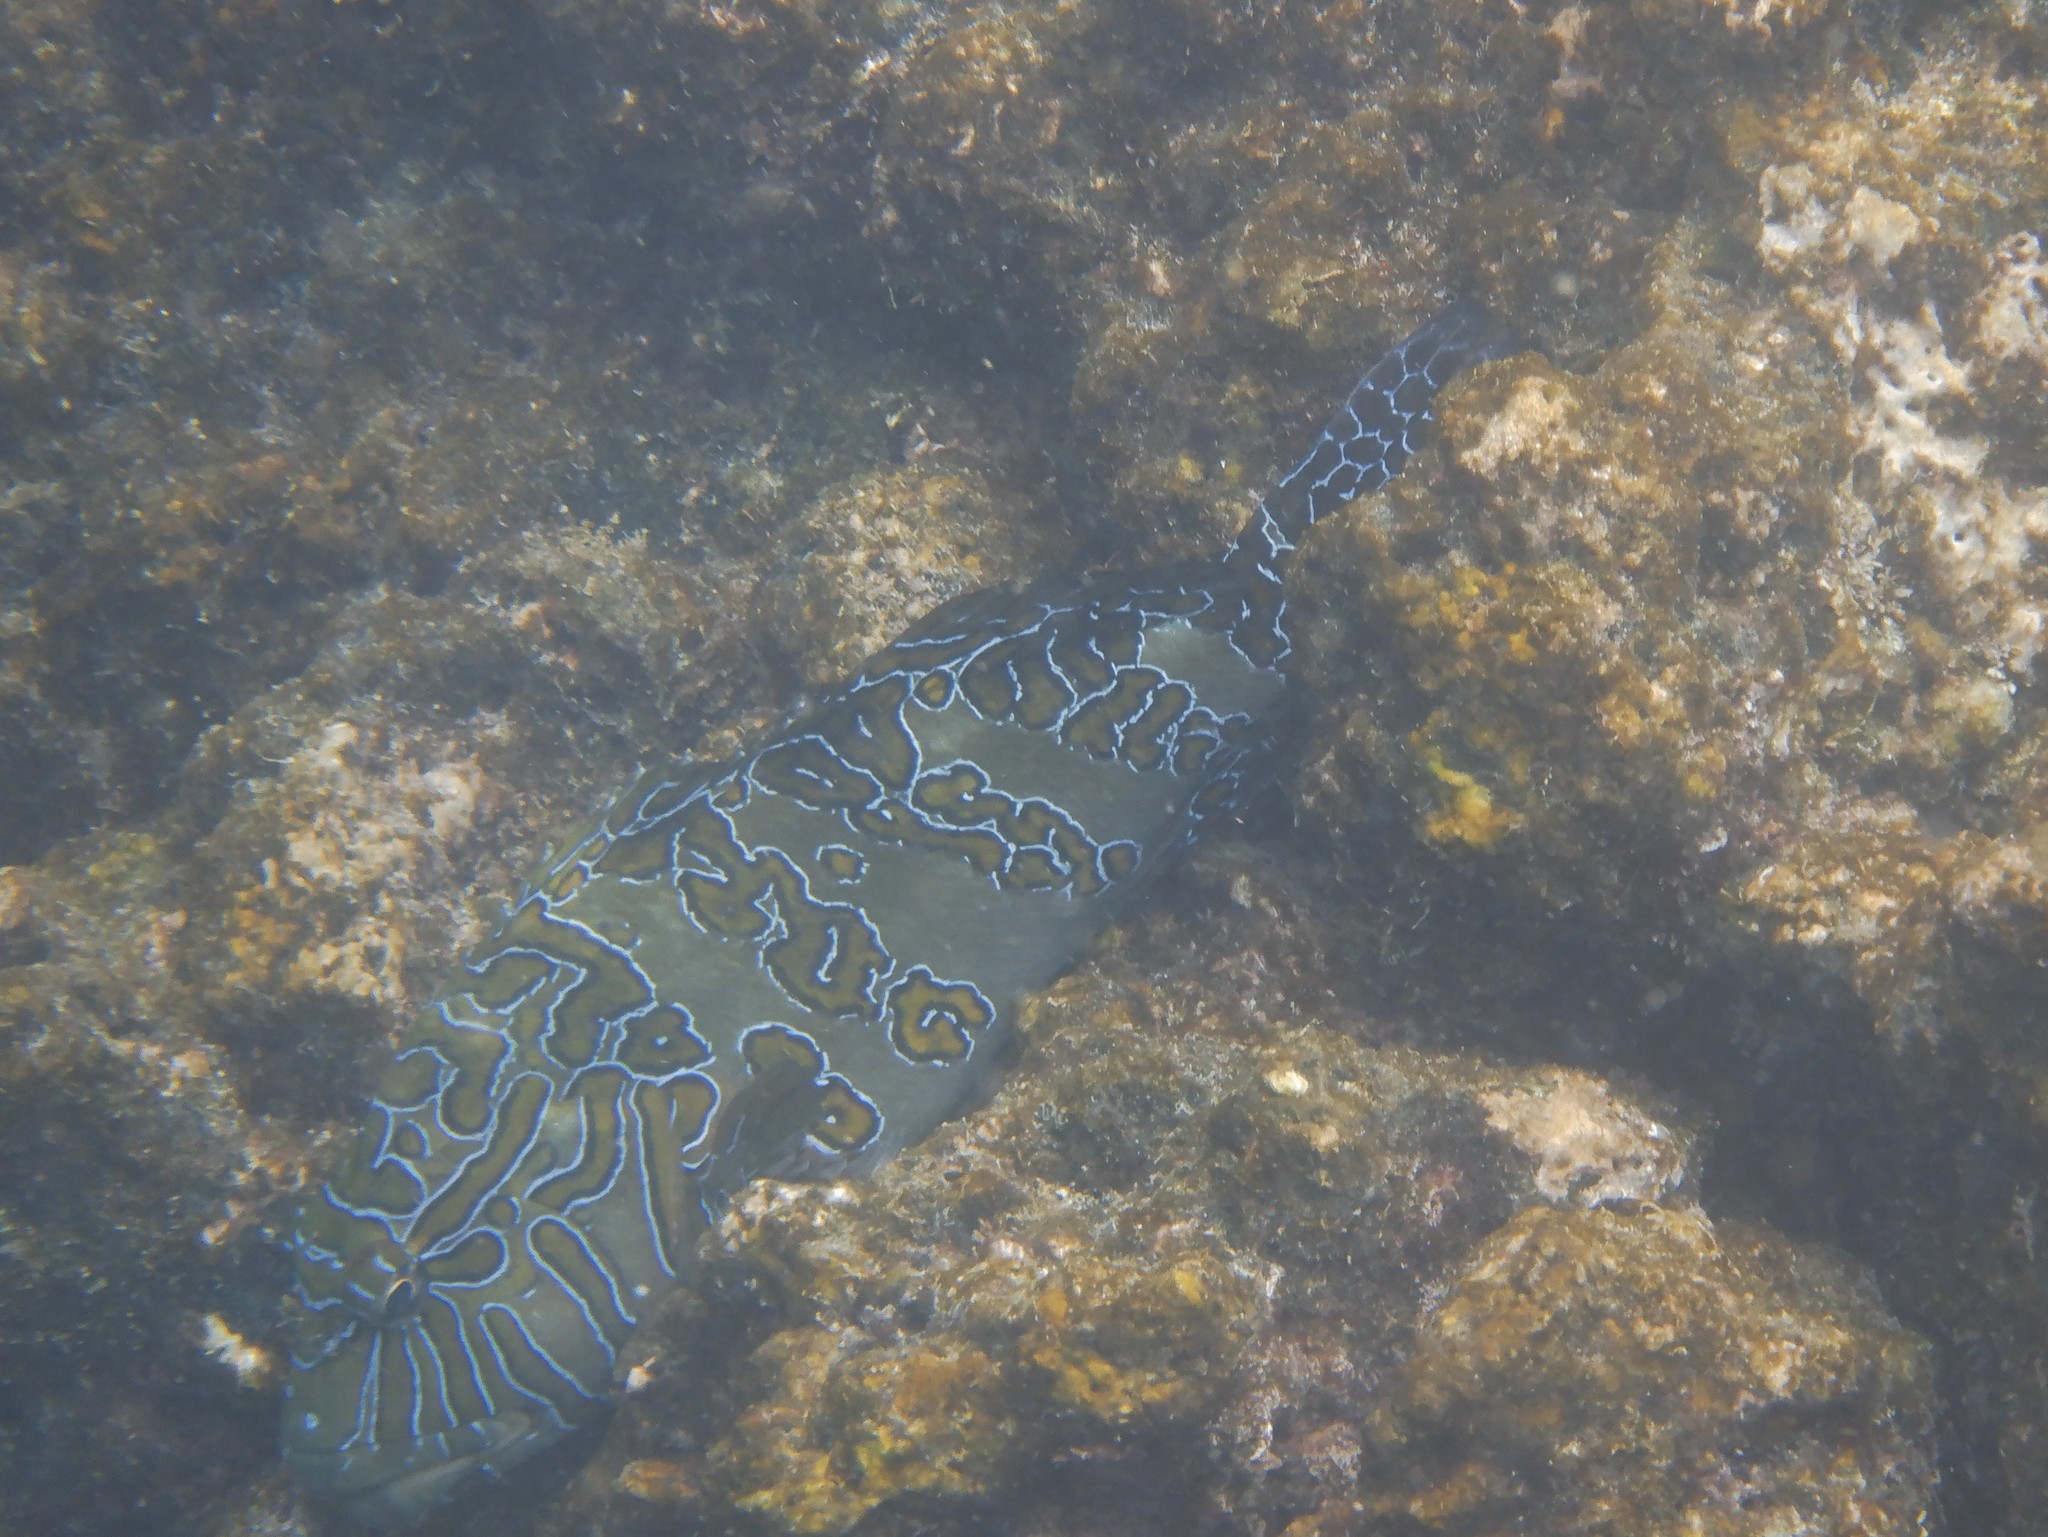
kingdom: Animalia
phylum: Chordata
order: Perciformes
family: Cirrhitidae
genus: Cirrhitus
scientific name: Cirrhitus rivulatus
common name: Giant hawkfish
